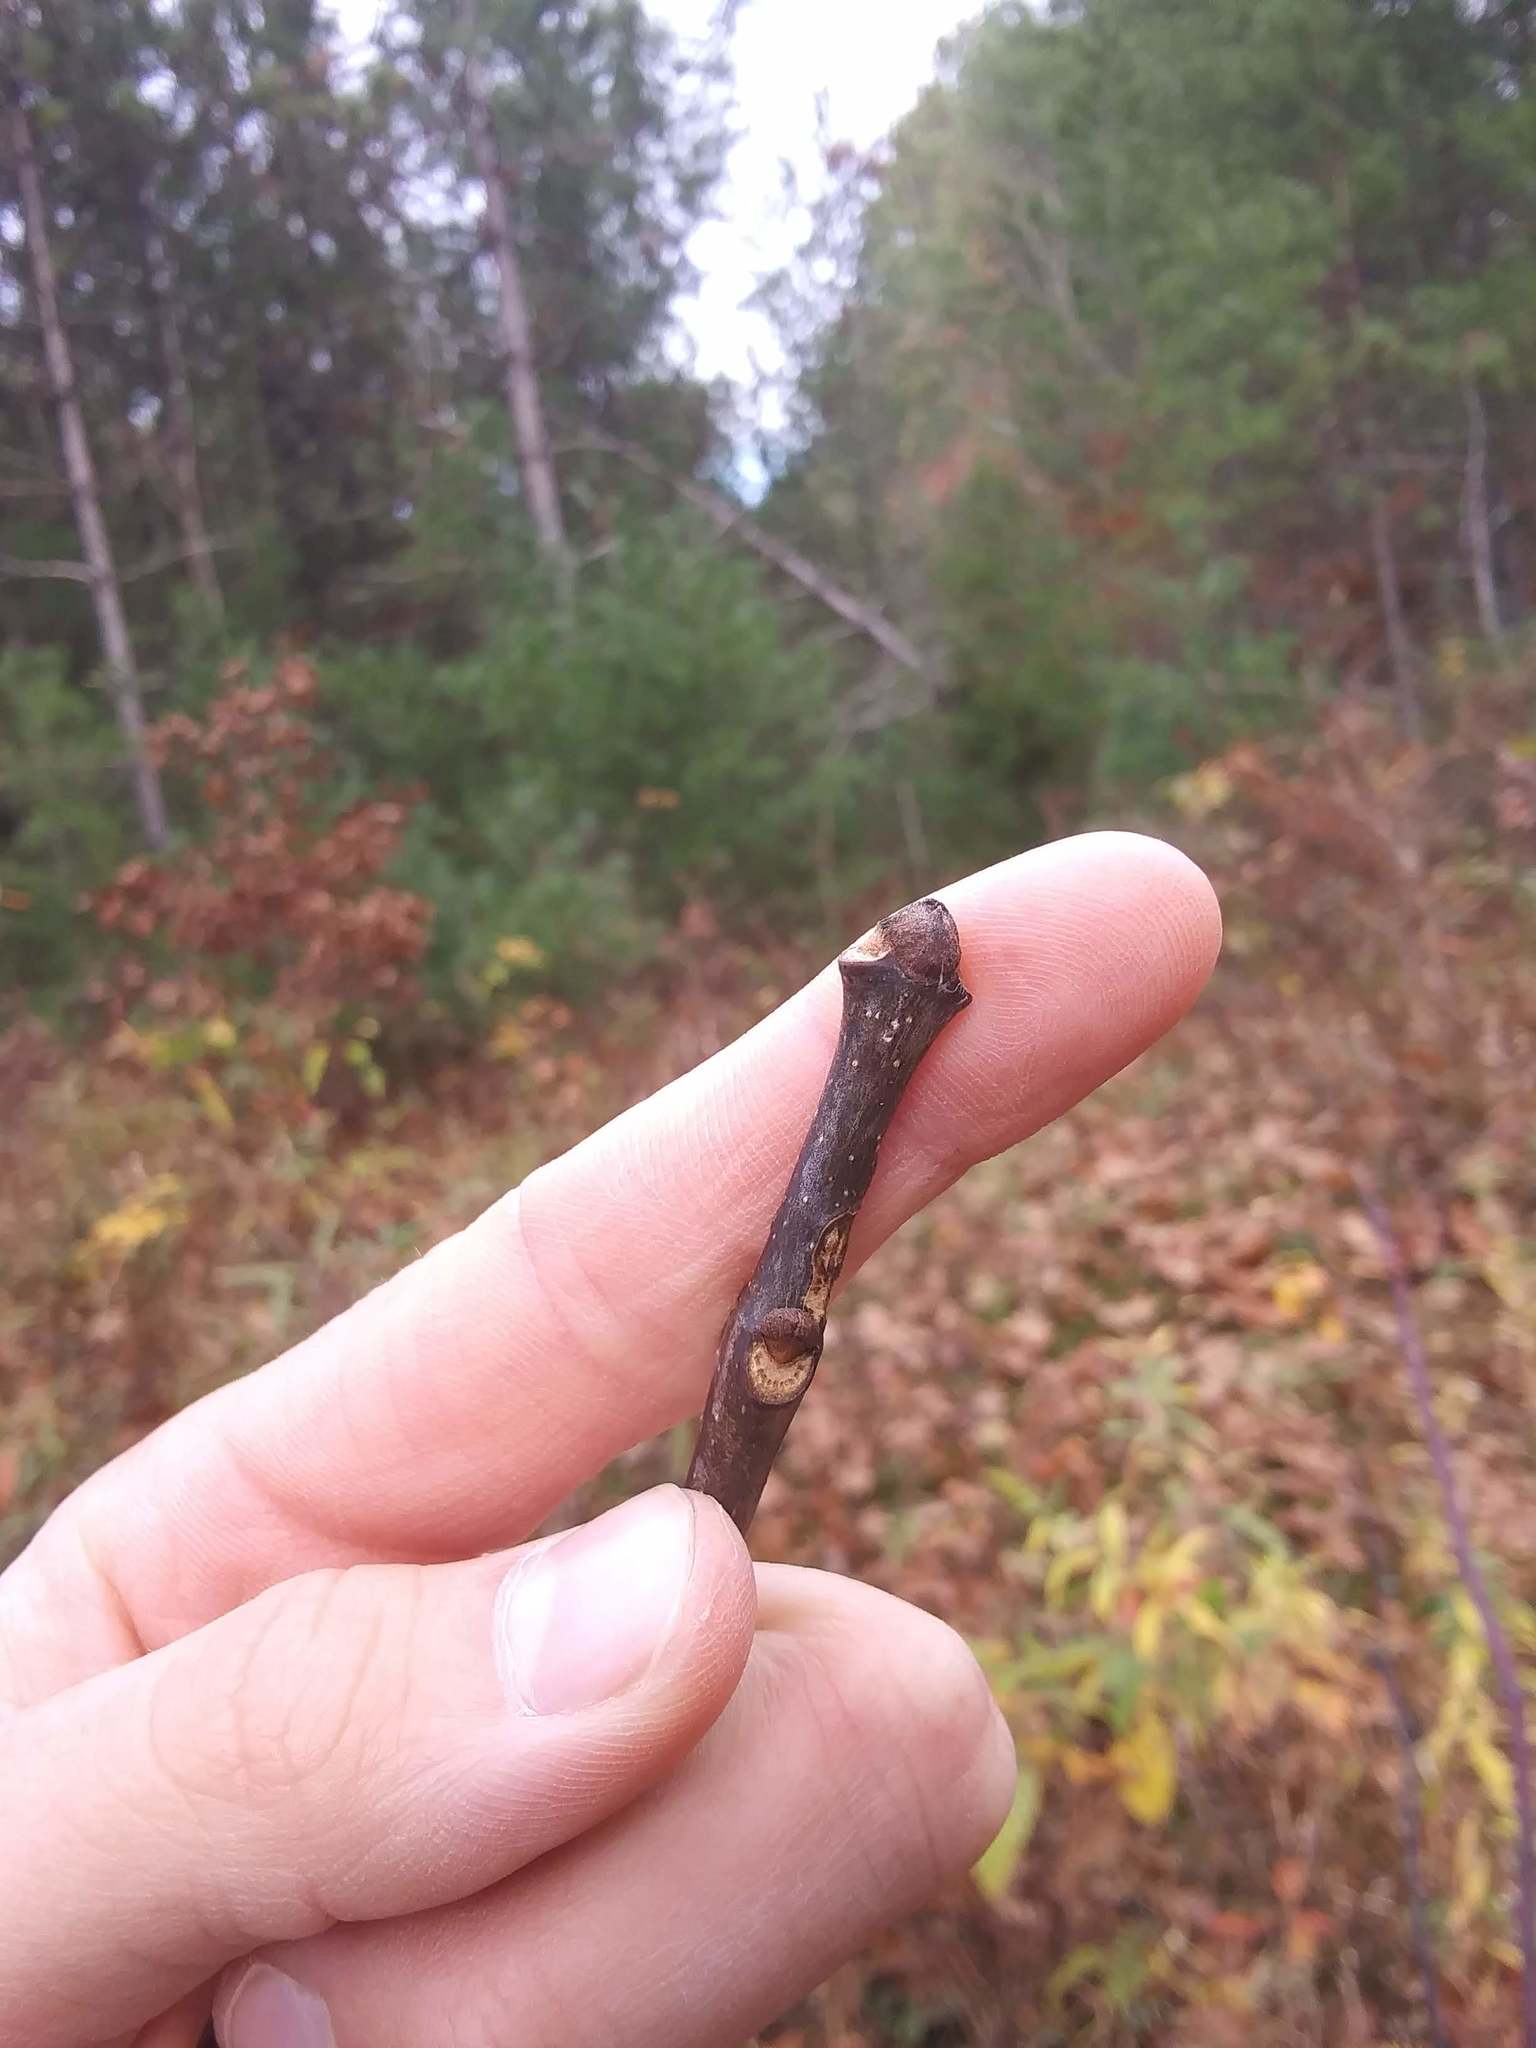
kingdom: Plantae
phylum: Tracheophyta
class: Magnoliopsida
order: Lamiales
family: Oleaceae
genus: Fraxinus
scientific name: Fraxinus americana
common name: White ash
